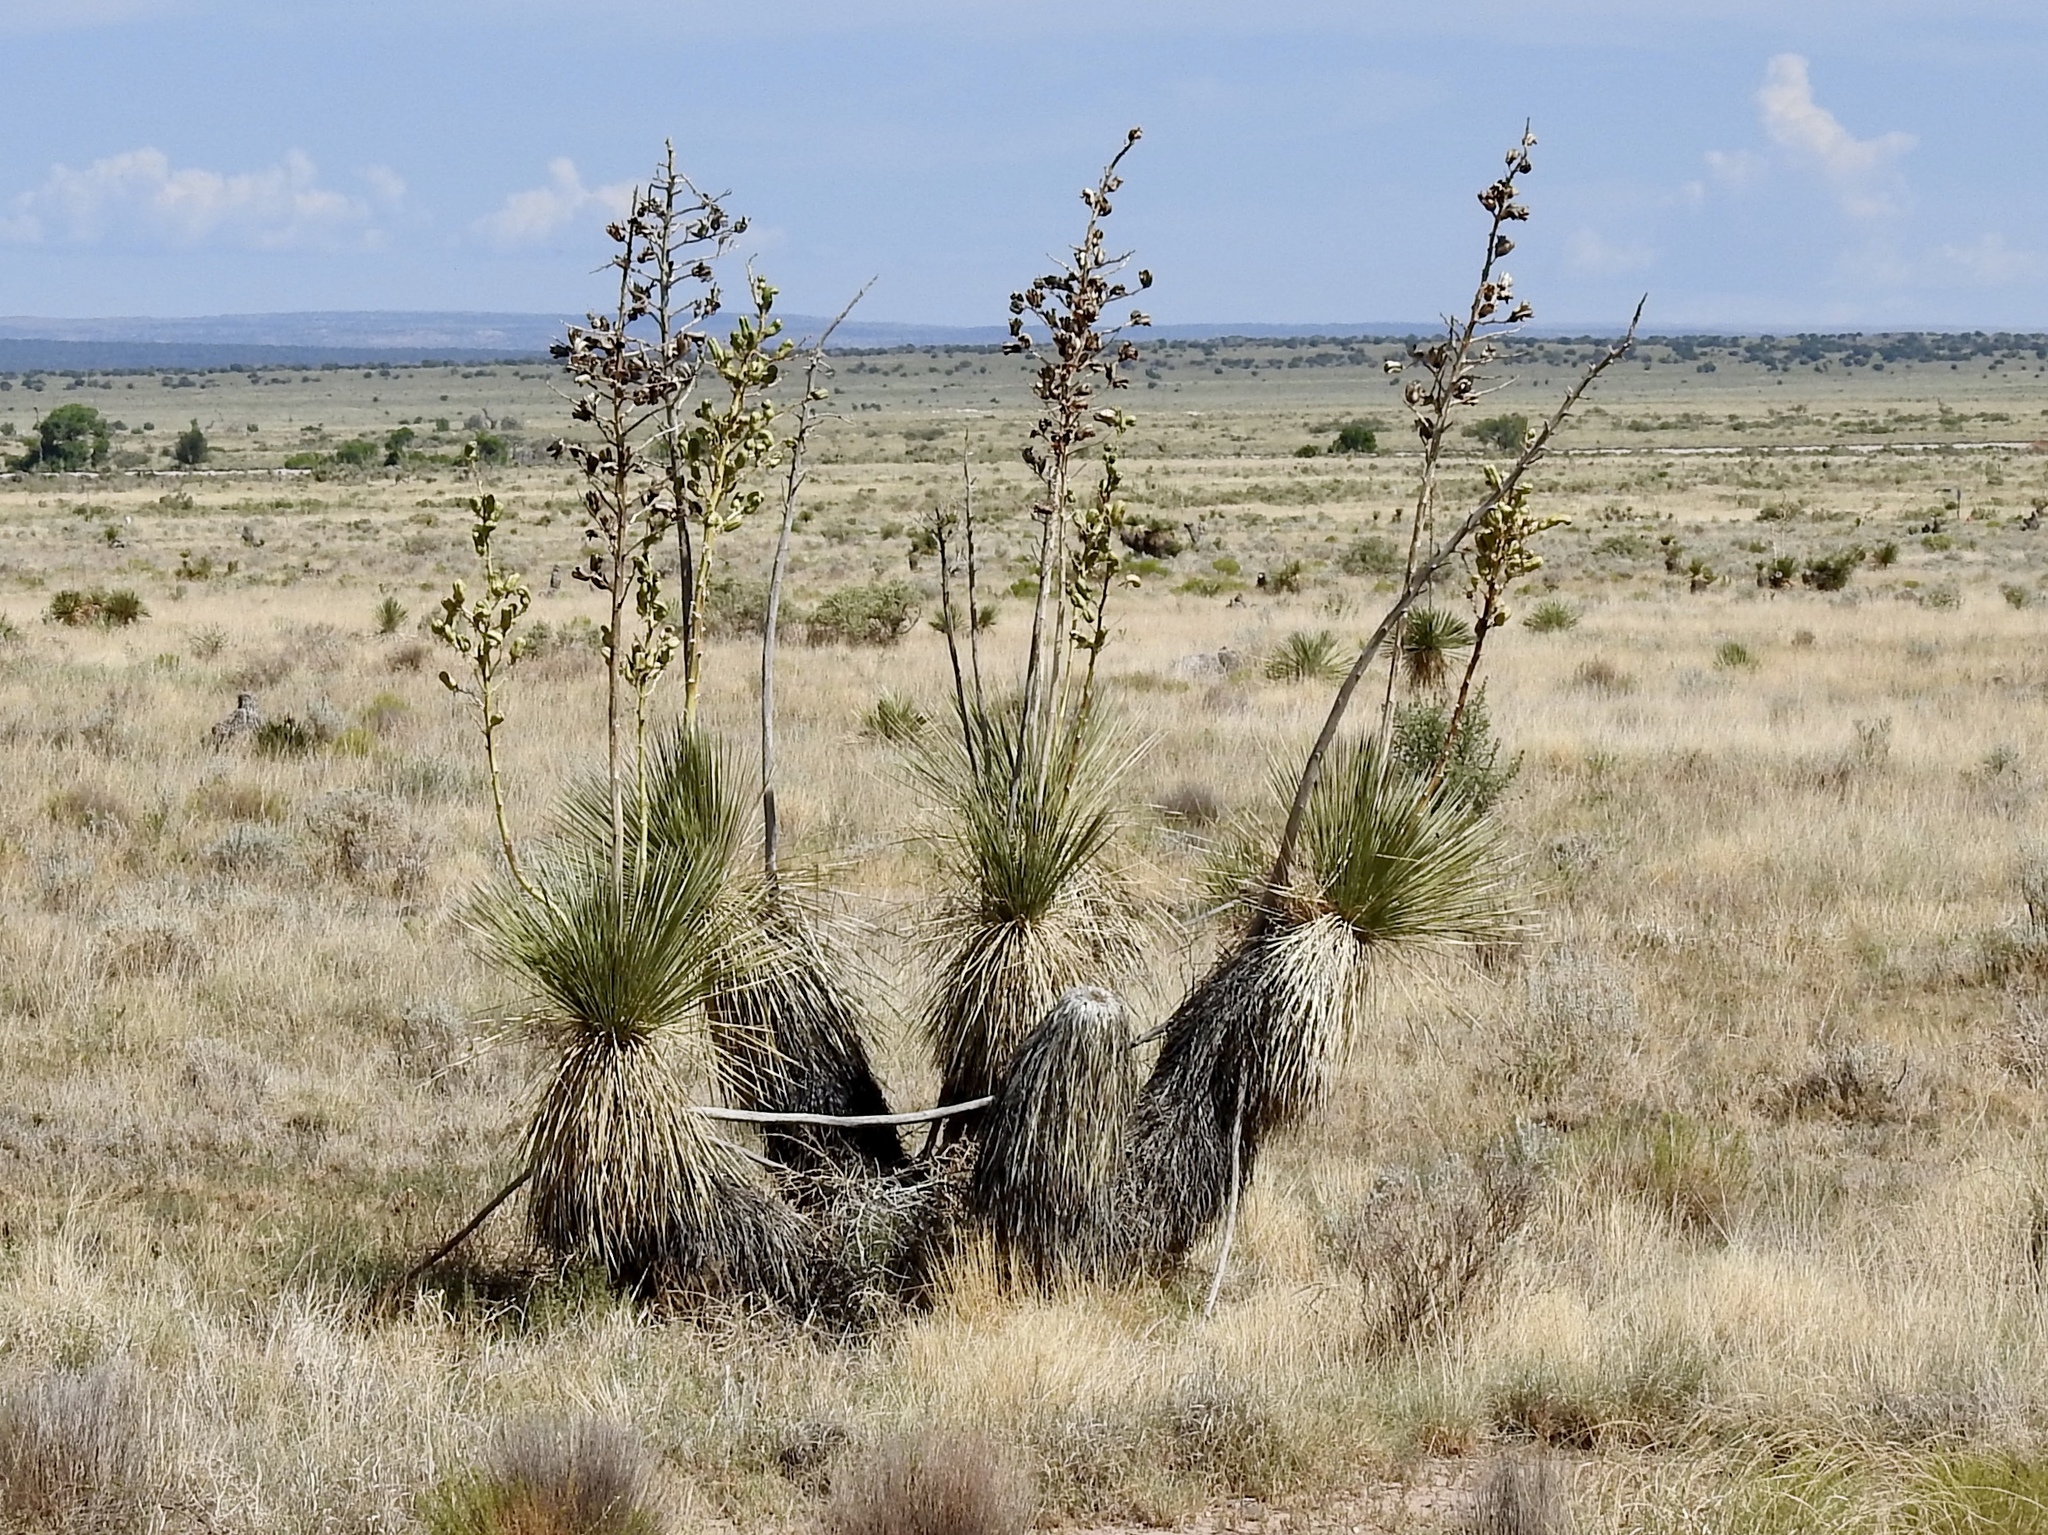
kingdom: Plantae
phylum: Tracheophyta
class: Liliopsida
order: Asparagales
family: Asparagaceae
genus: Yucca
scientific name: Yucca elata
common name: Palmella
